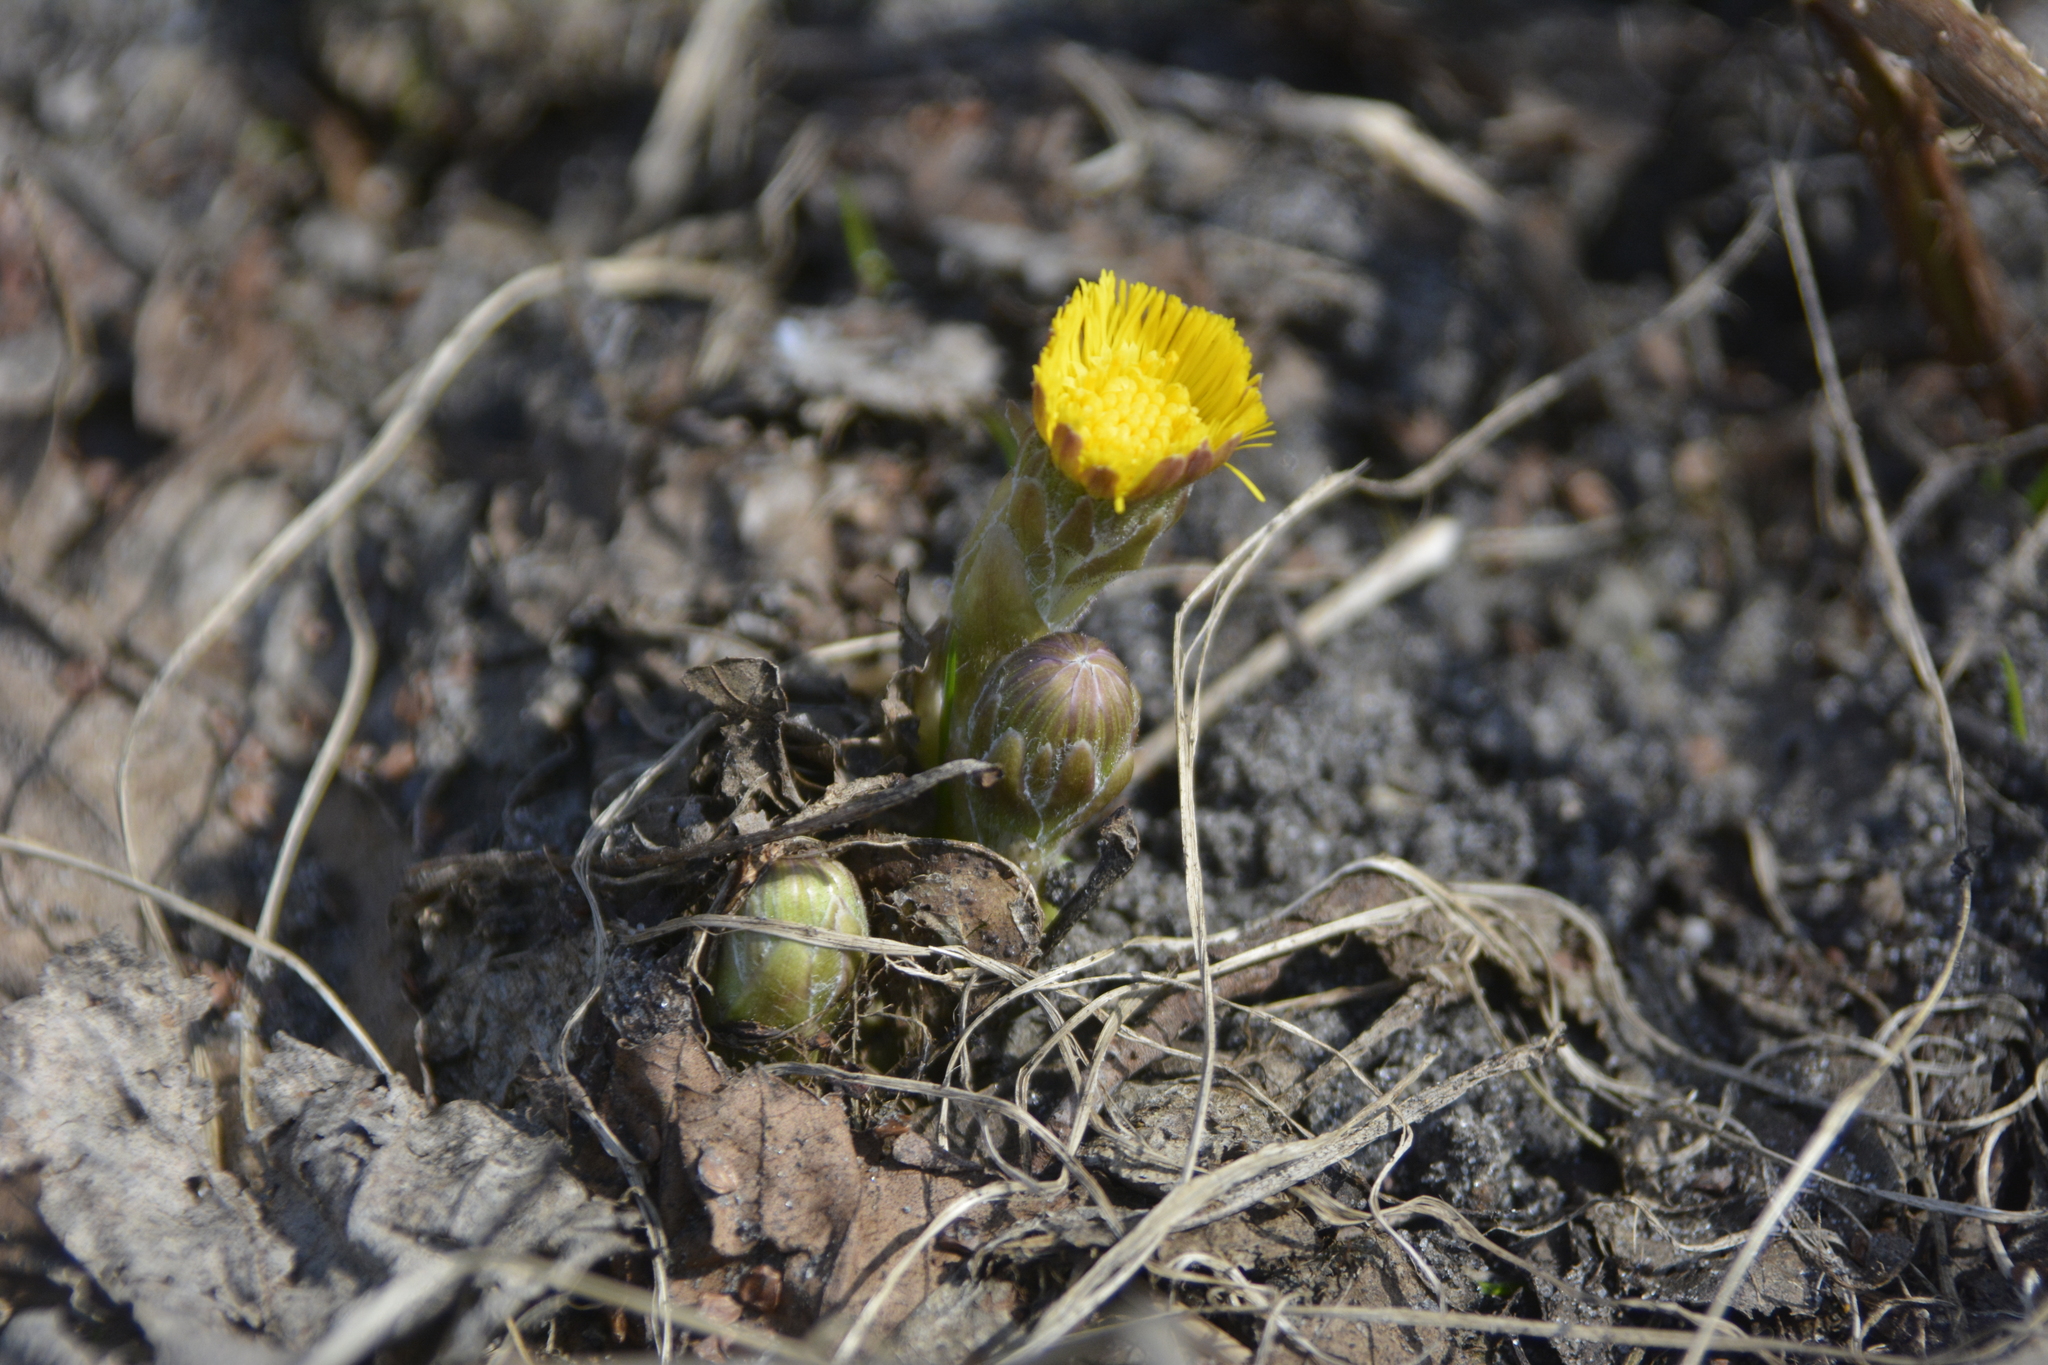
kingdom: Plantae
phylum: Tracheophyta
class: Magnoliopsida
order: Asterales
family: Asteraceae
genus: Tussilago
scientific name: Tussilago farfara
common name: Coltsfoot
